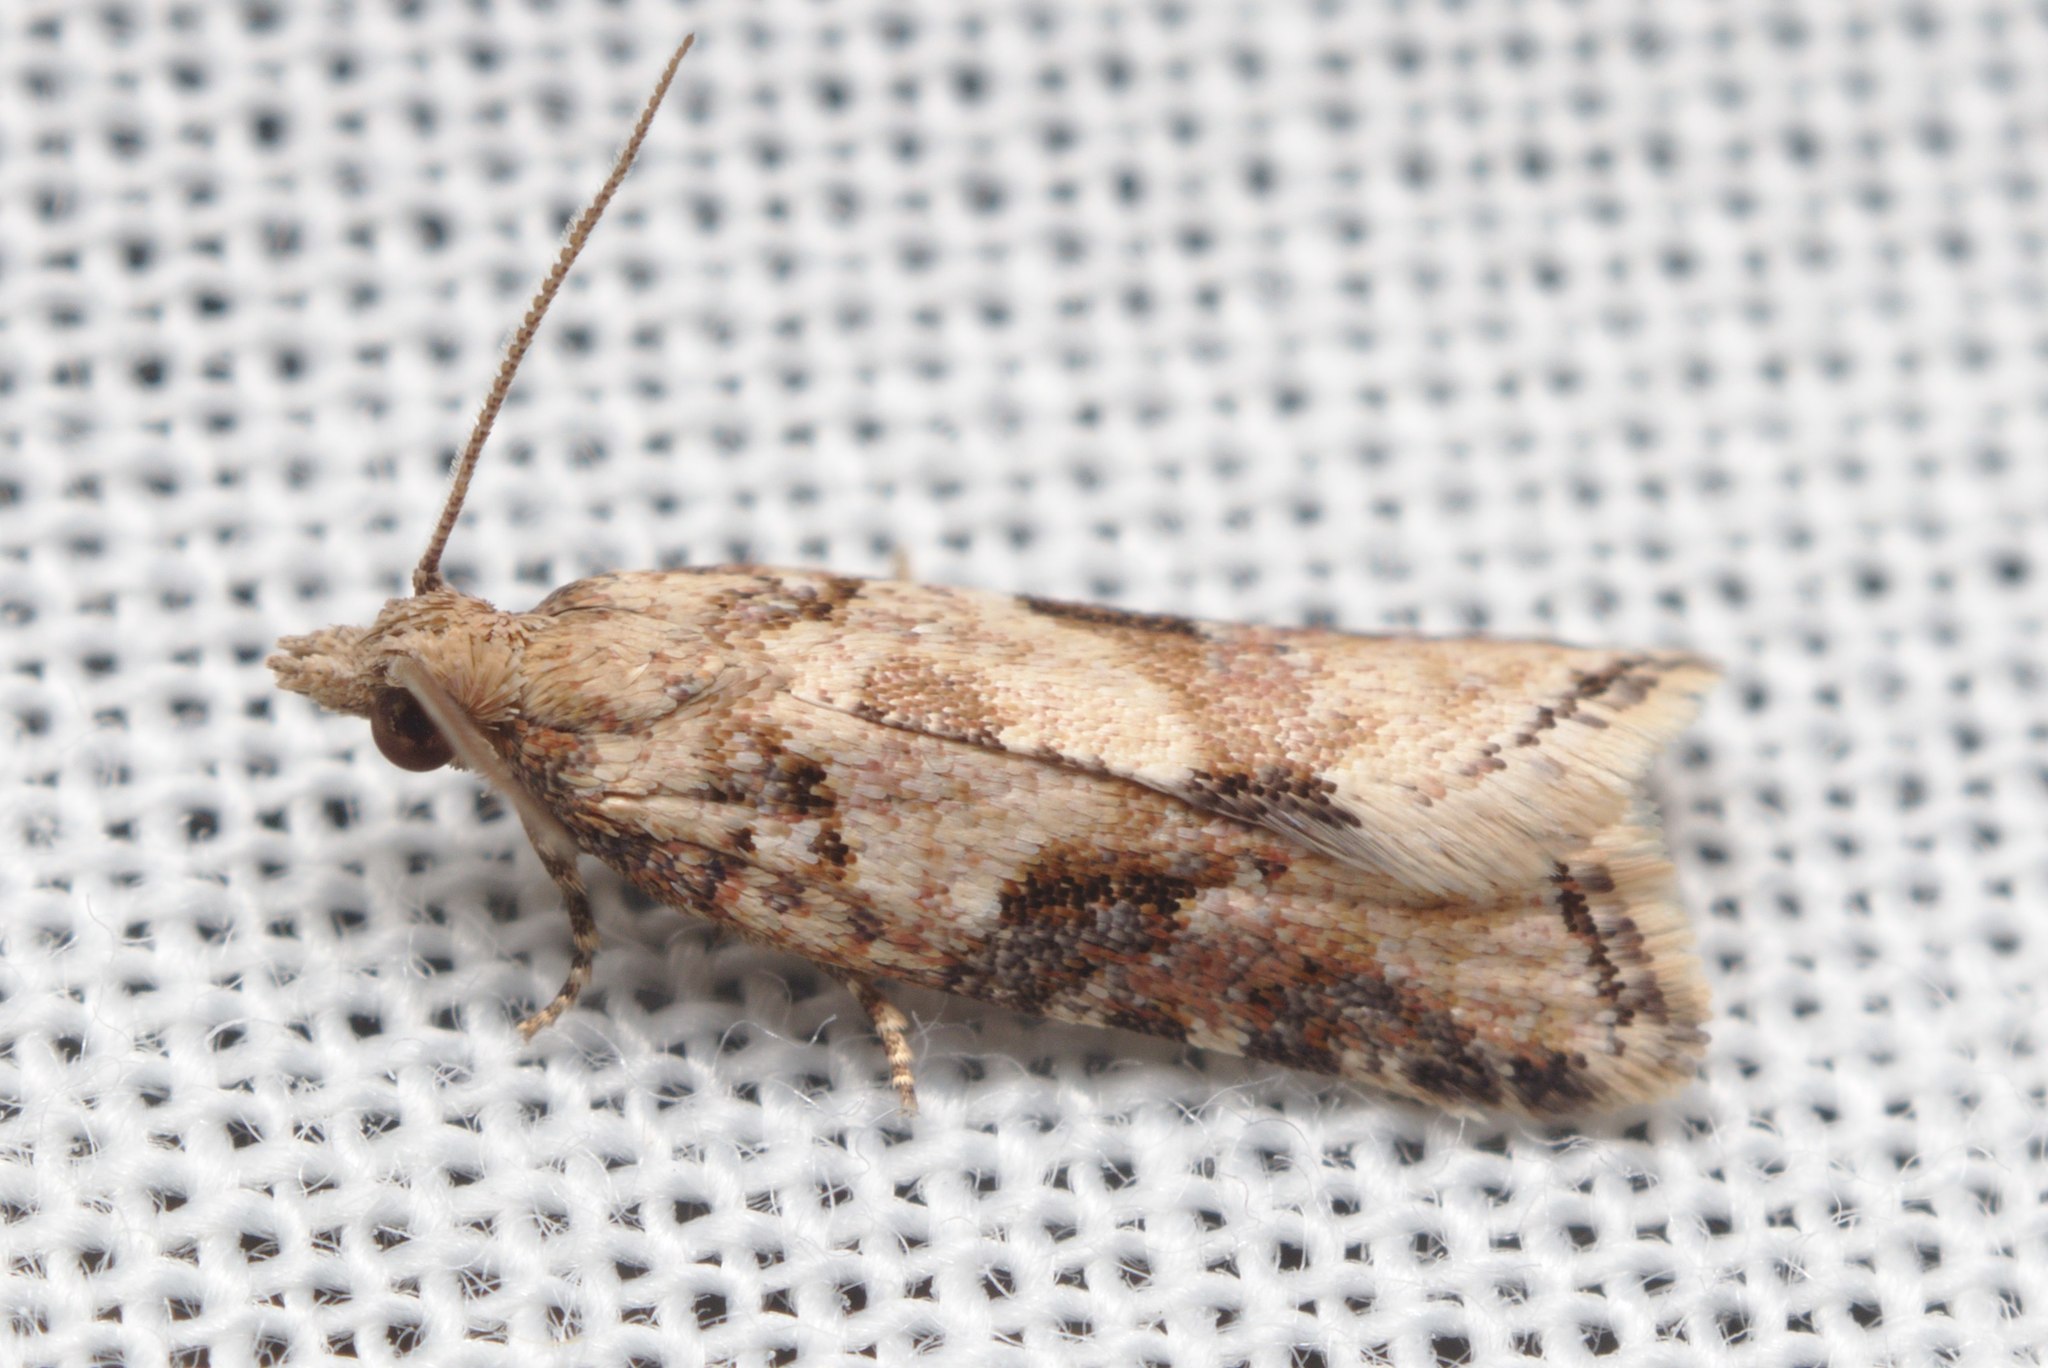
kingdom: Animalia
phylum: Arthropoda
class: Insecta
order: Lepidoptera
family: Tortricidae
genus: Capua
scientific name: Capua semiferana
